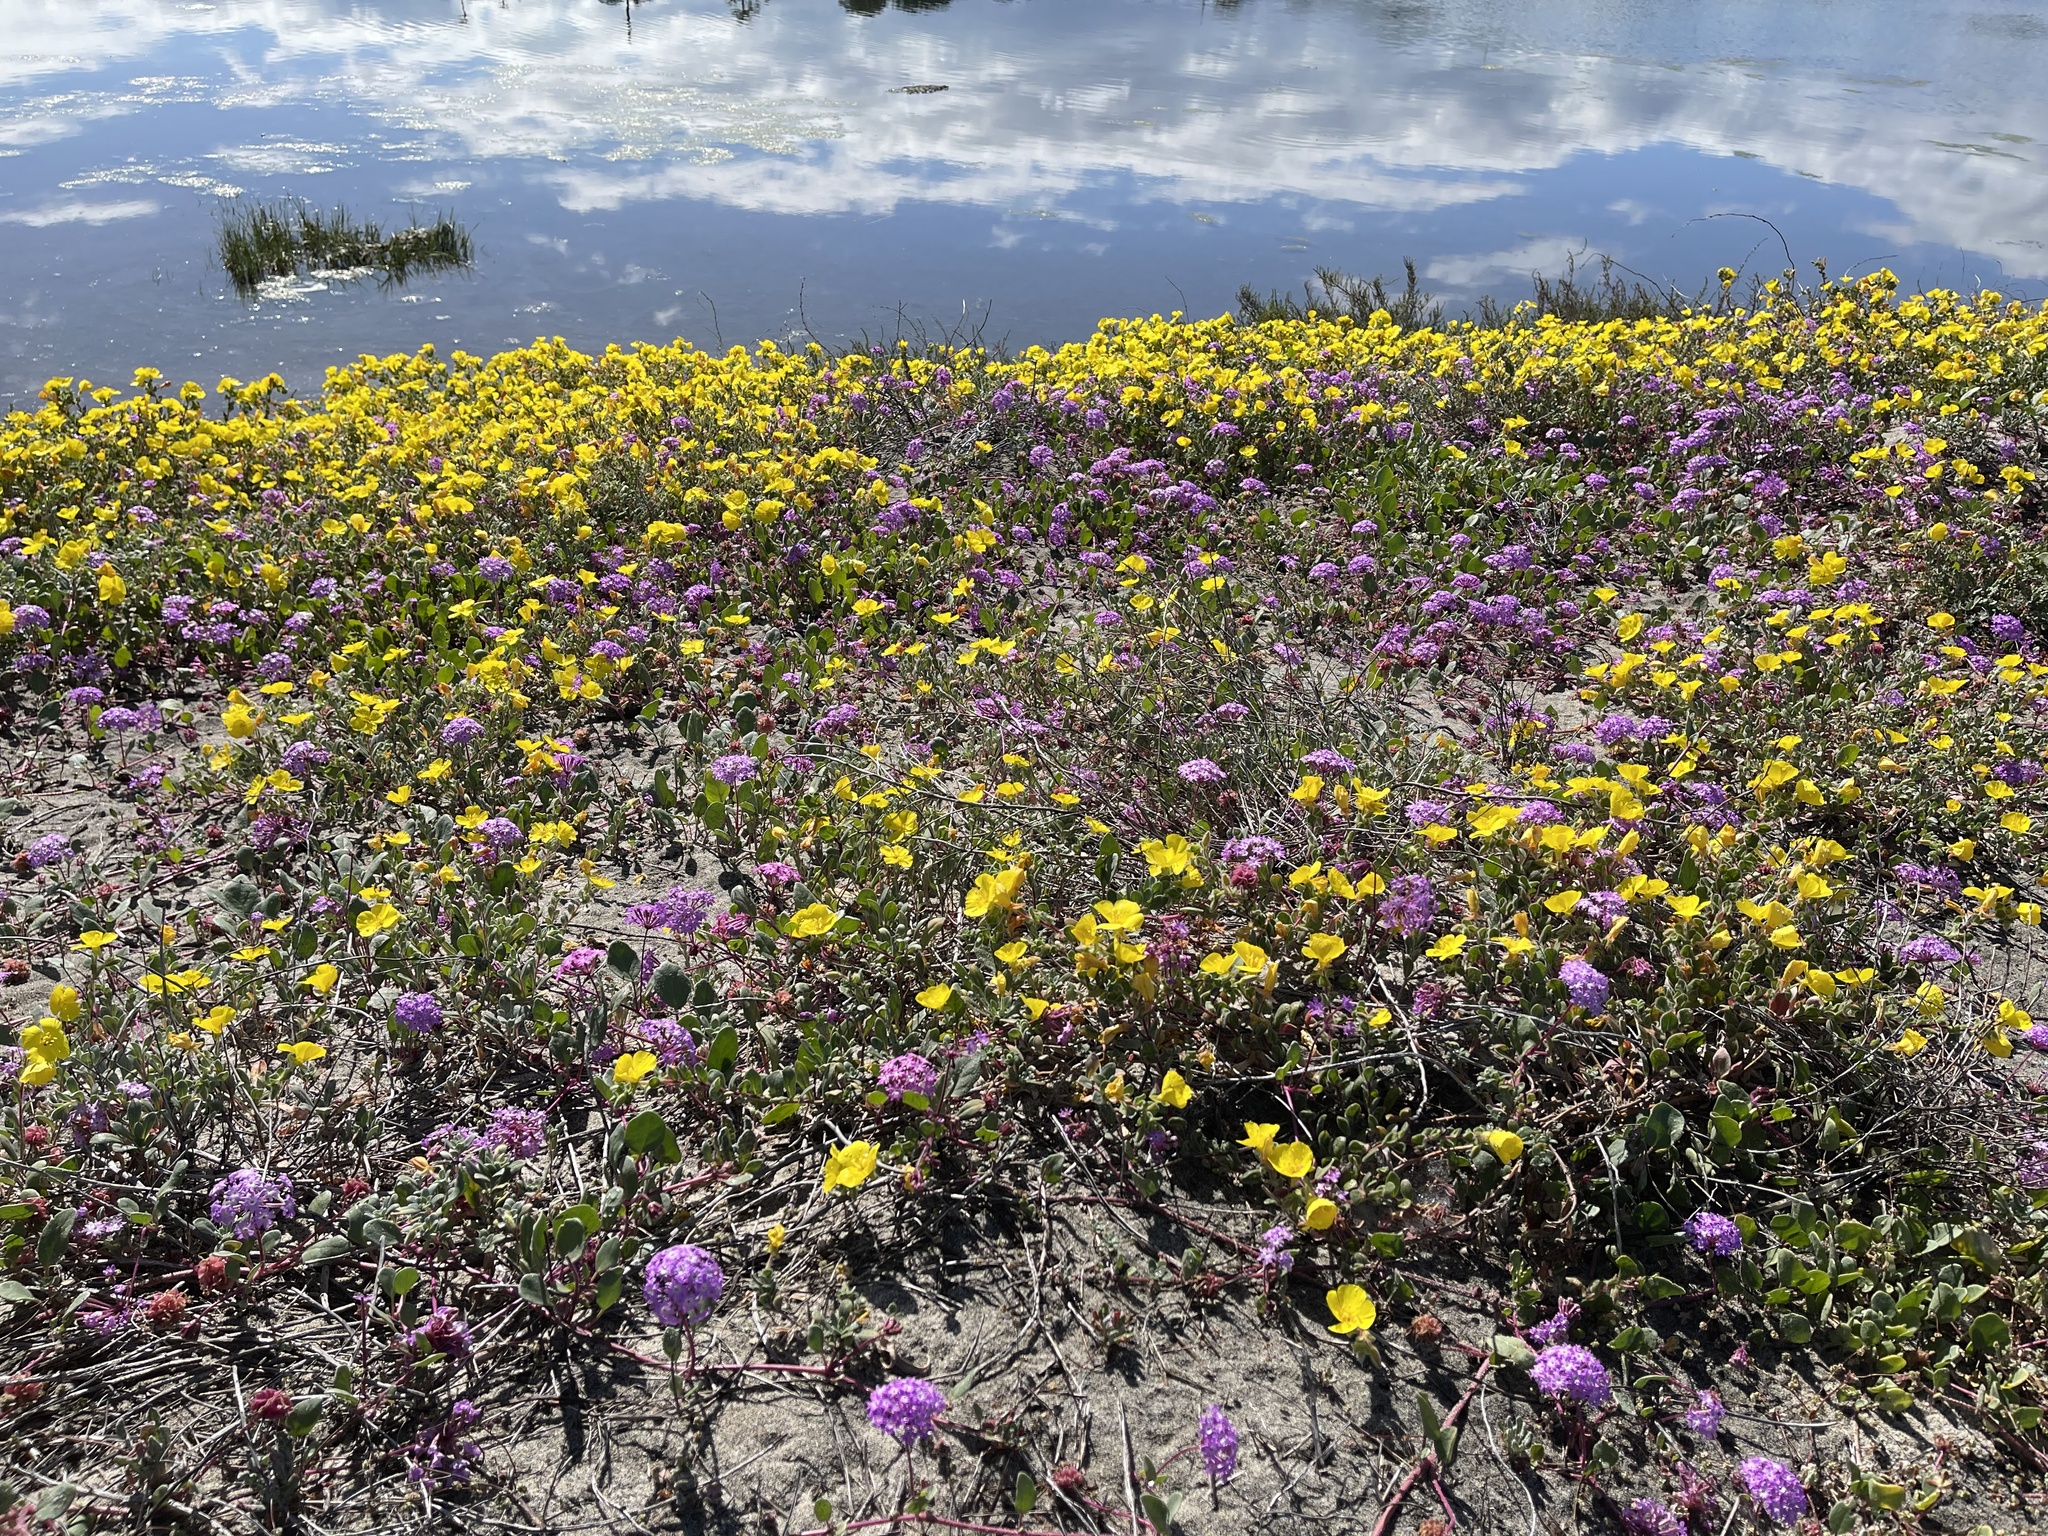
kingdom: Plantae
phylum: Tracheophyta
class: Magnoliopsida
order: Caryophyllales
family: Nyctaginaceae
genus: Abronia
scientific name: Abronia umbellata
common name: Sand-verbena
